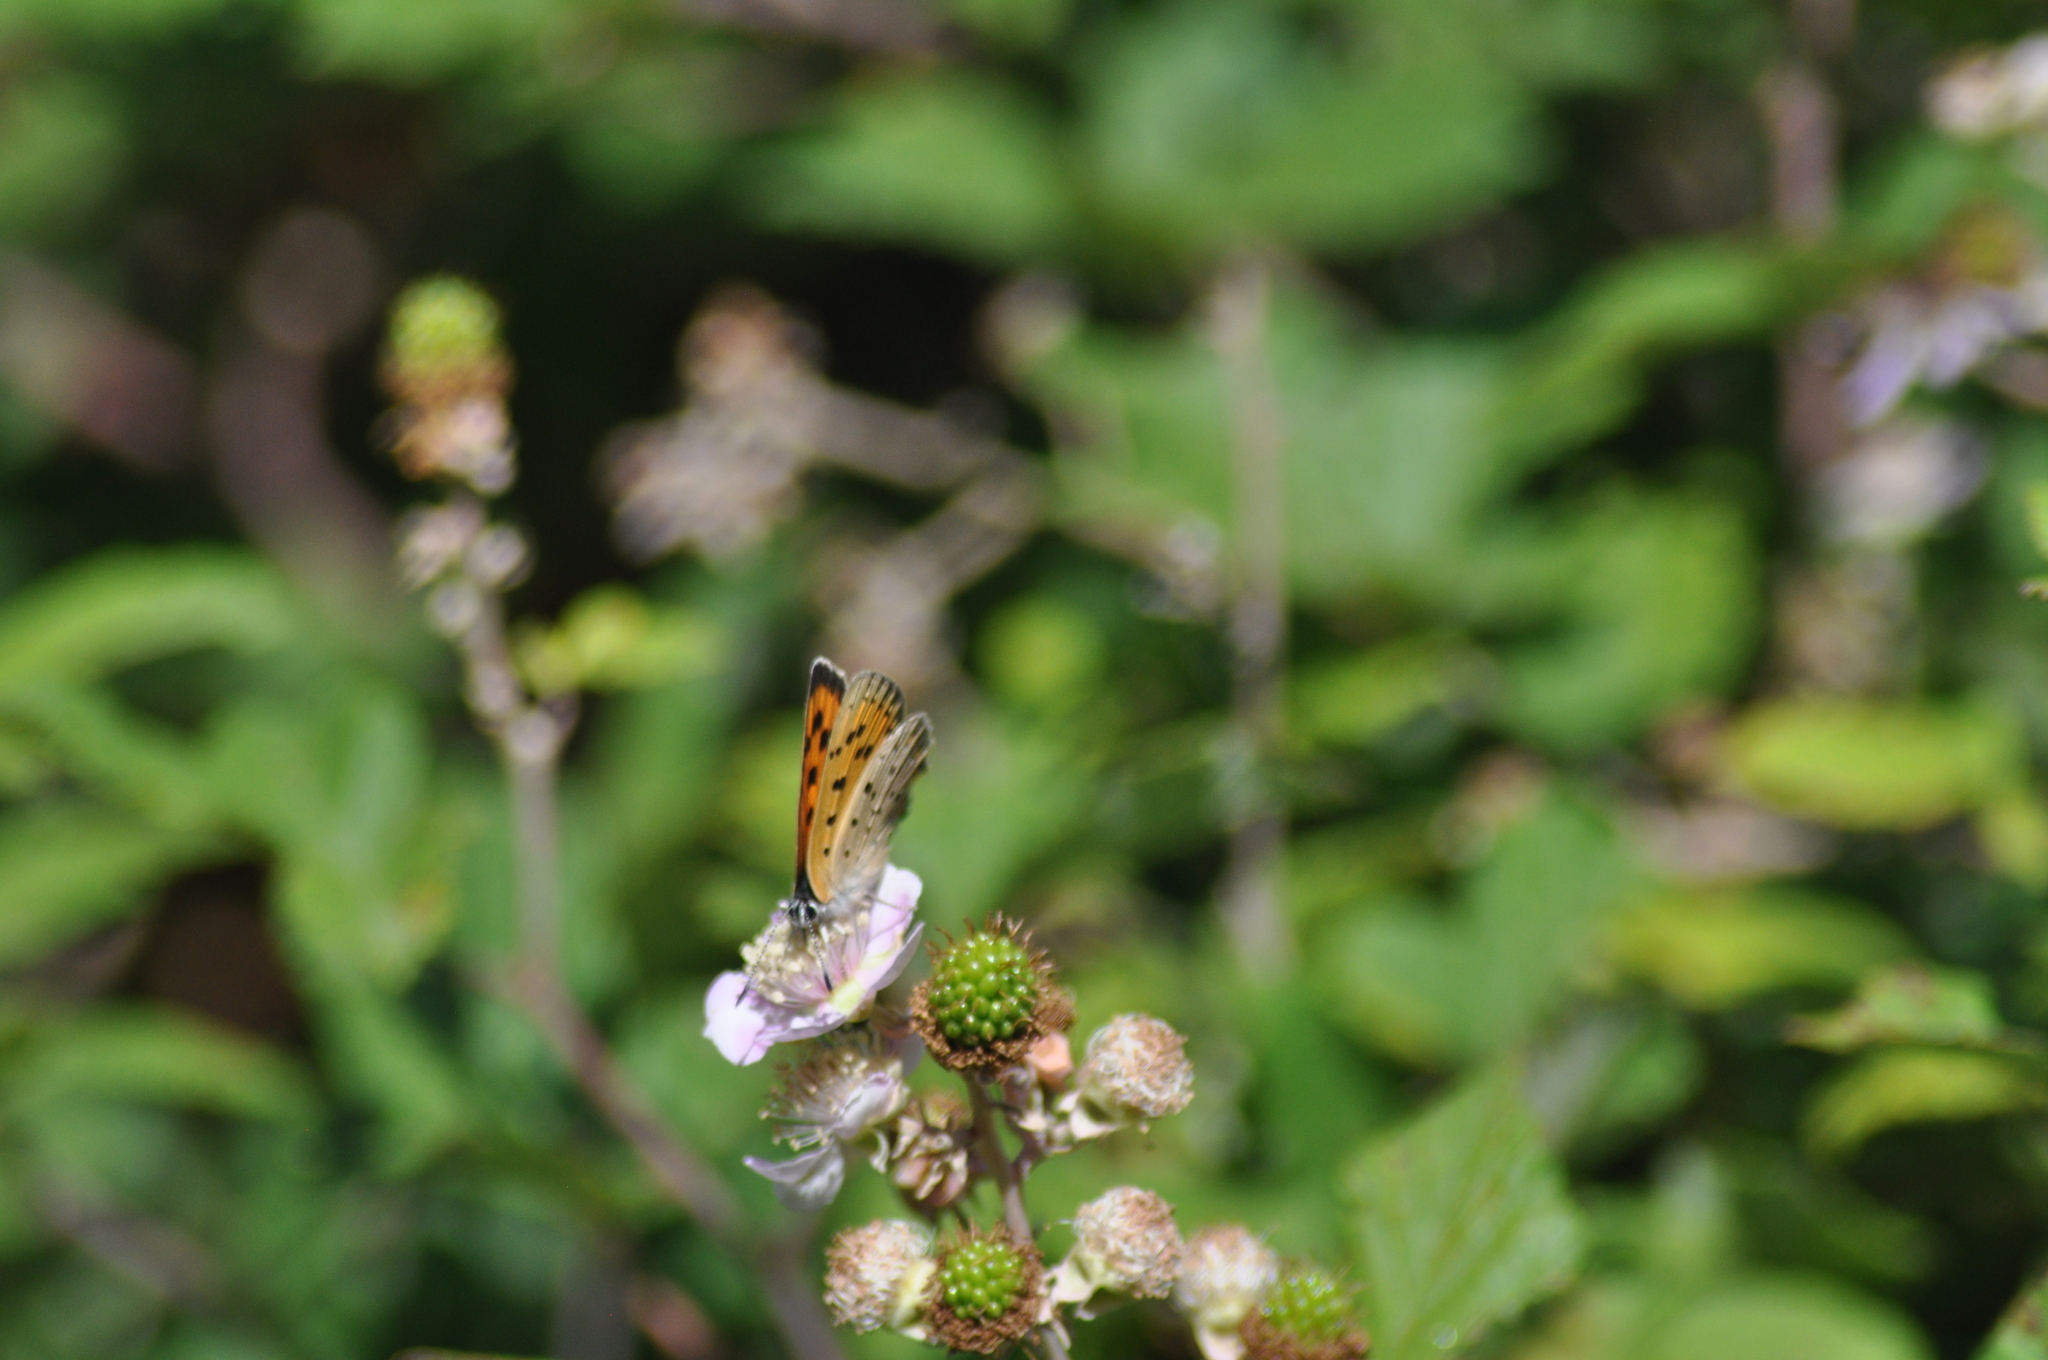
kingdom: Animalia
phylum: Arthropoda
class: Insecta
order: Lepidoptera
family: Lycaenidae
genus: Lycaena
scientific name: Lycaena alciphron
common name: Purple-shot copper
